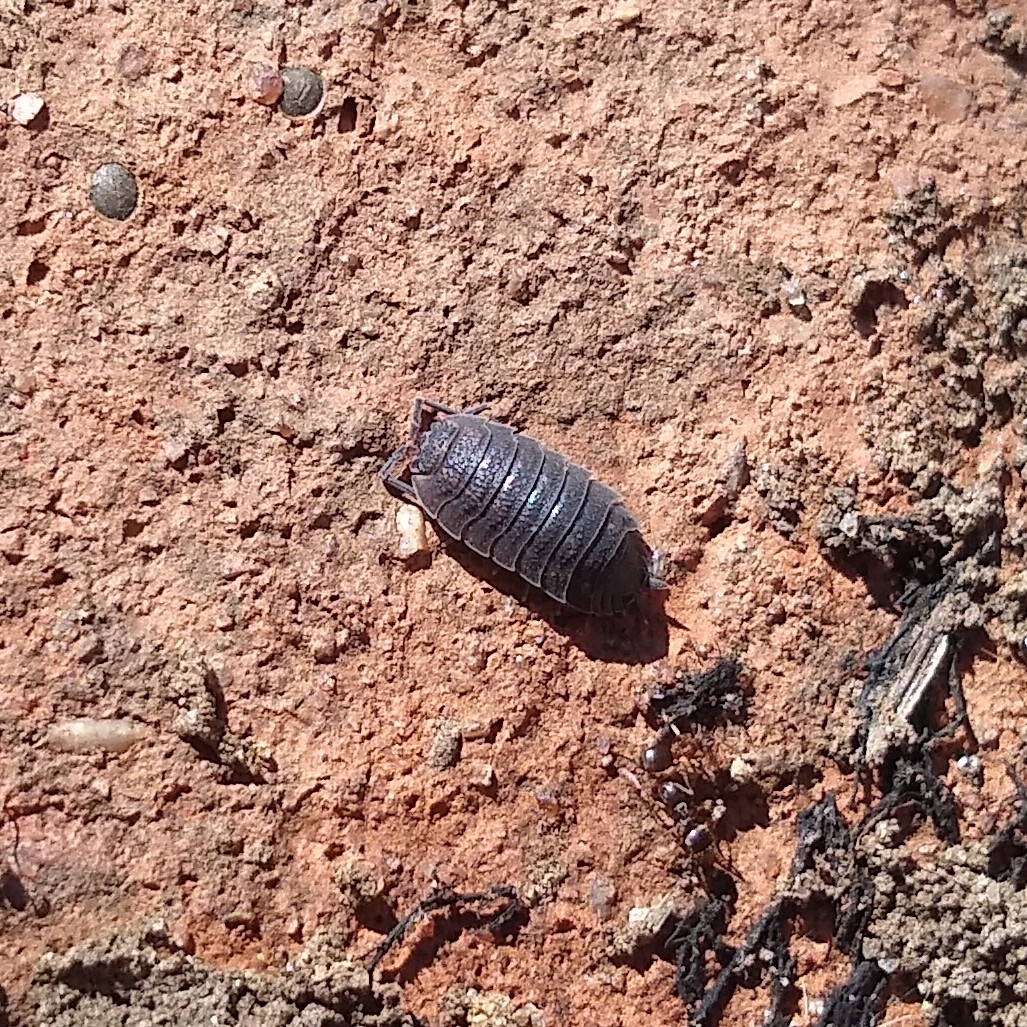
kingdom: Animalia
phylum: Arthropoda
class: Malacostraca
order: Isopoda
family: Porcellionidae
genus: Porcellio
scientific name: Porcellio scaber
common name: Common rough woodlouse
